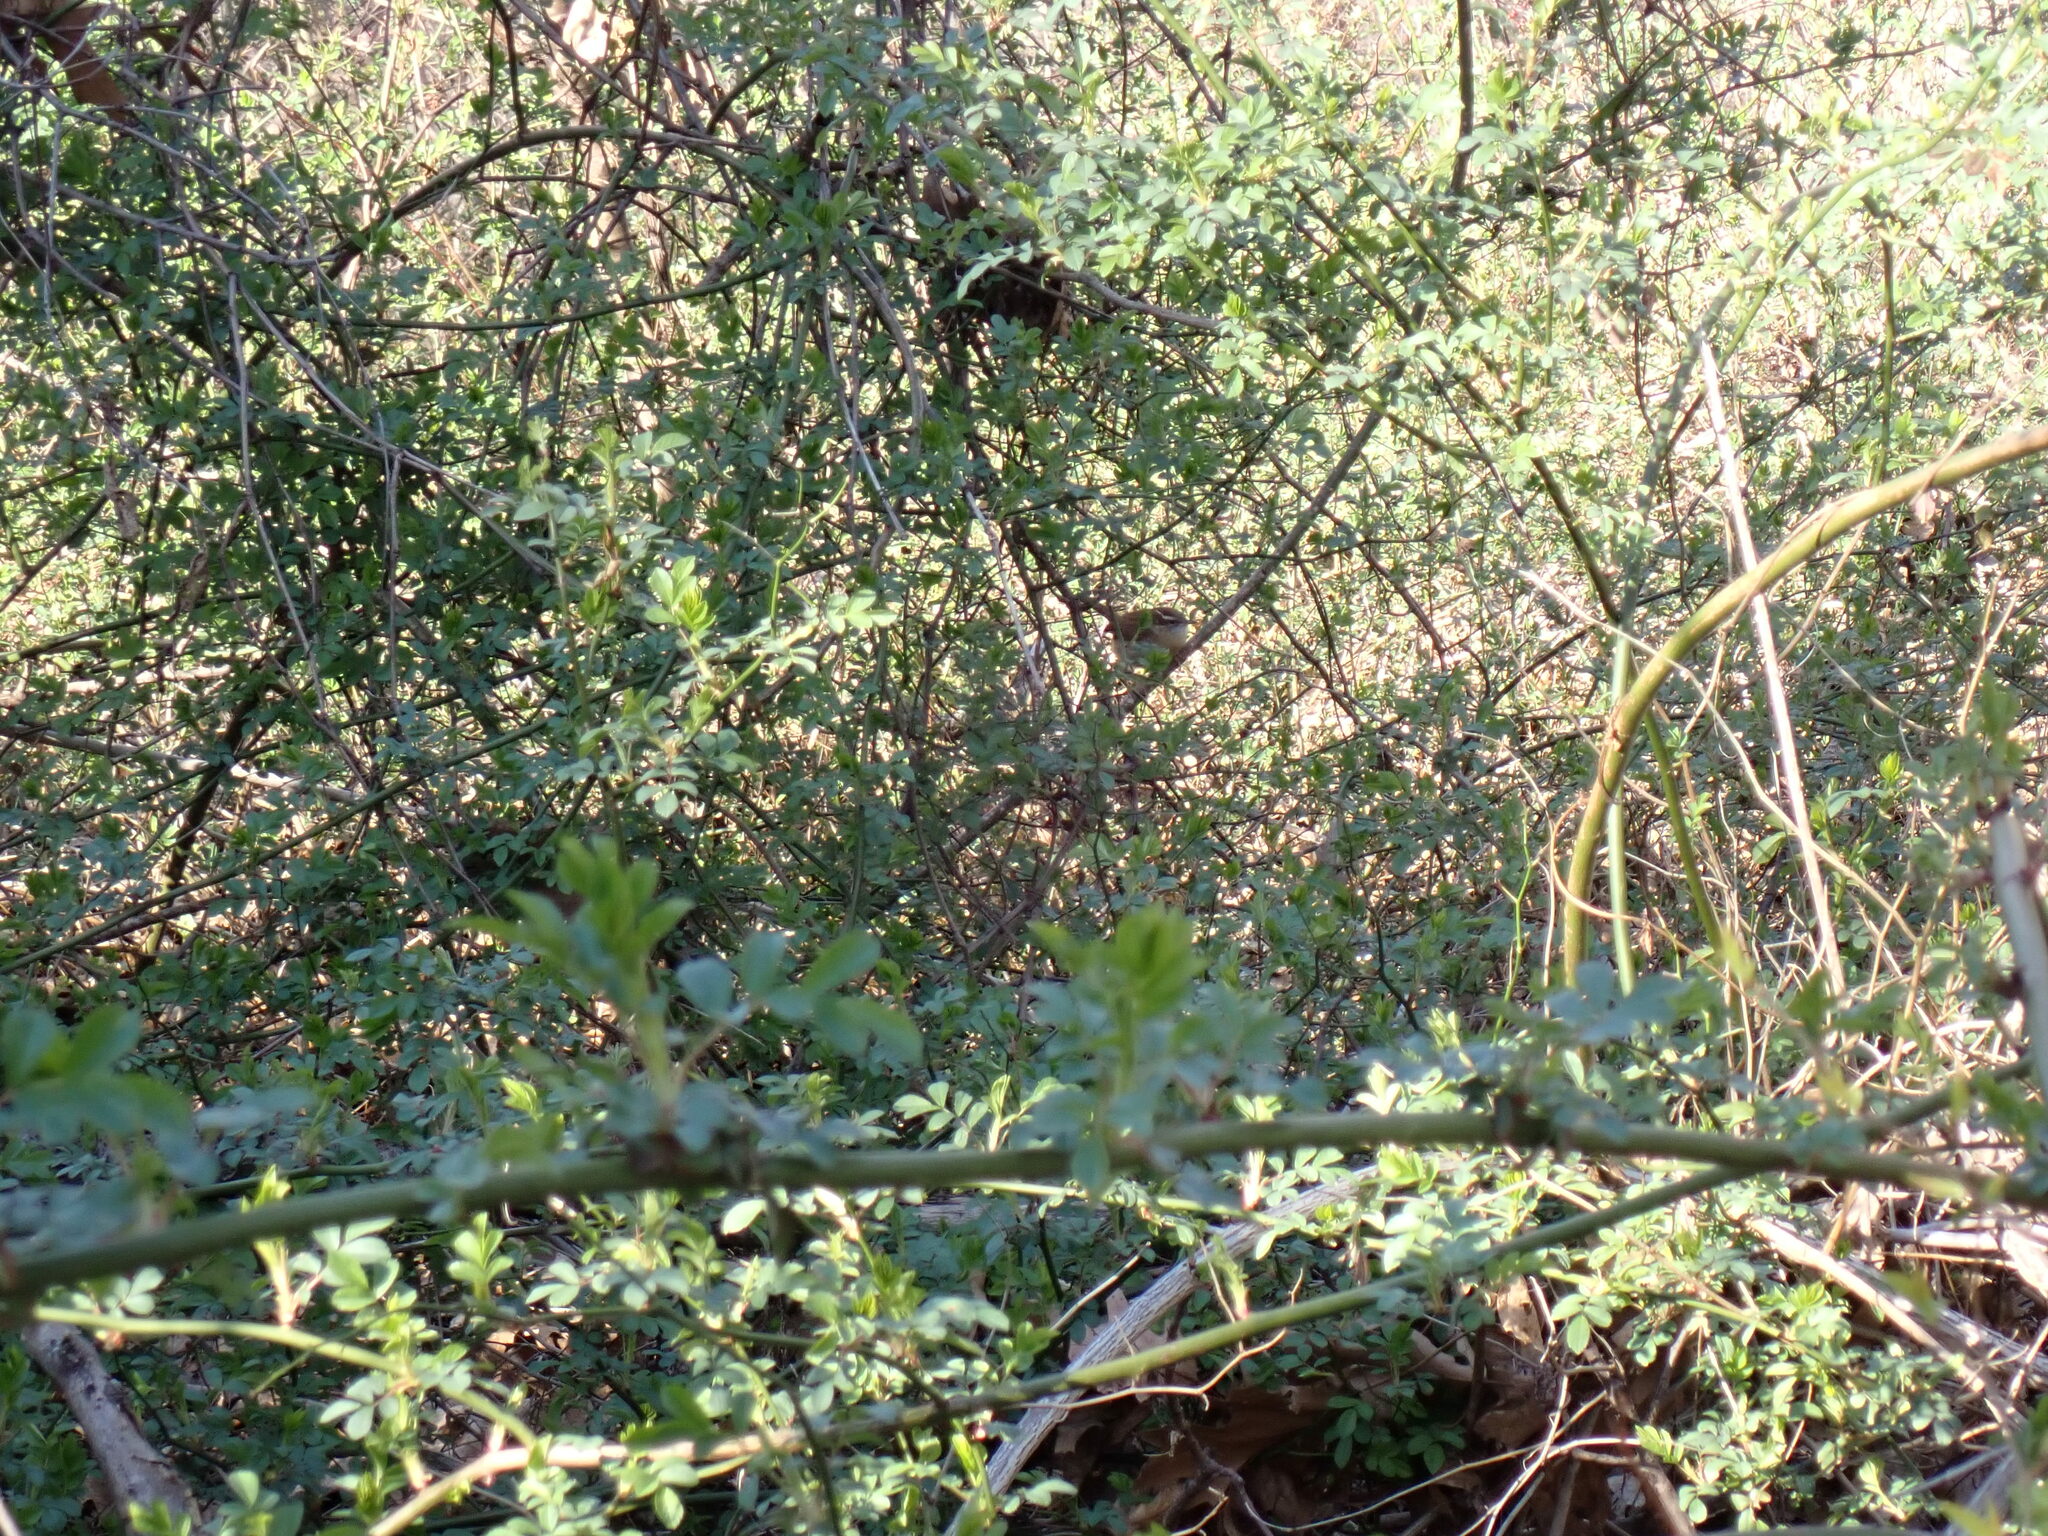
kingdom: Animalia
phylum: Chordata
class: Aves
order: Passeriformes
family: Troglodytidae
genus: Thryothorus
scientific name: Thryothorus ludovicianus
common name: Carolina wren
